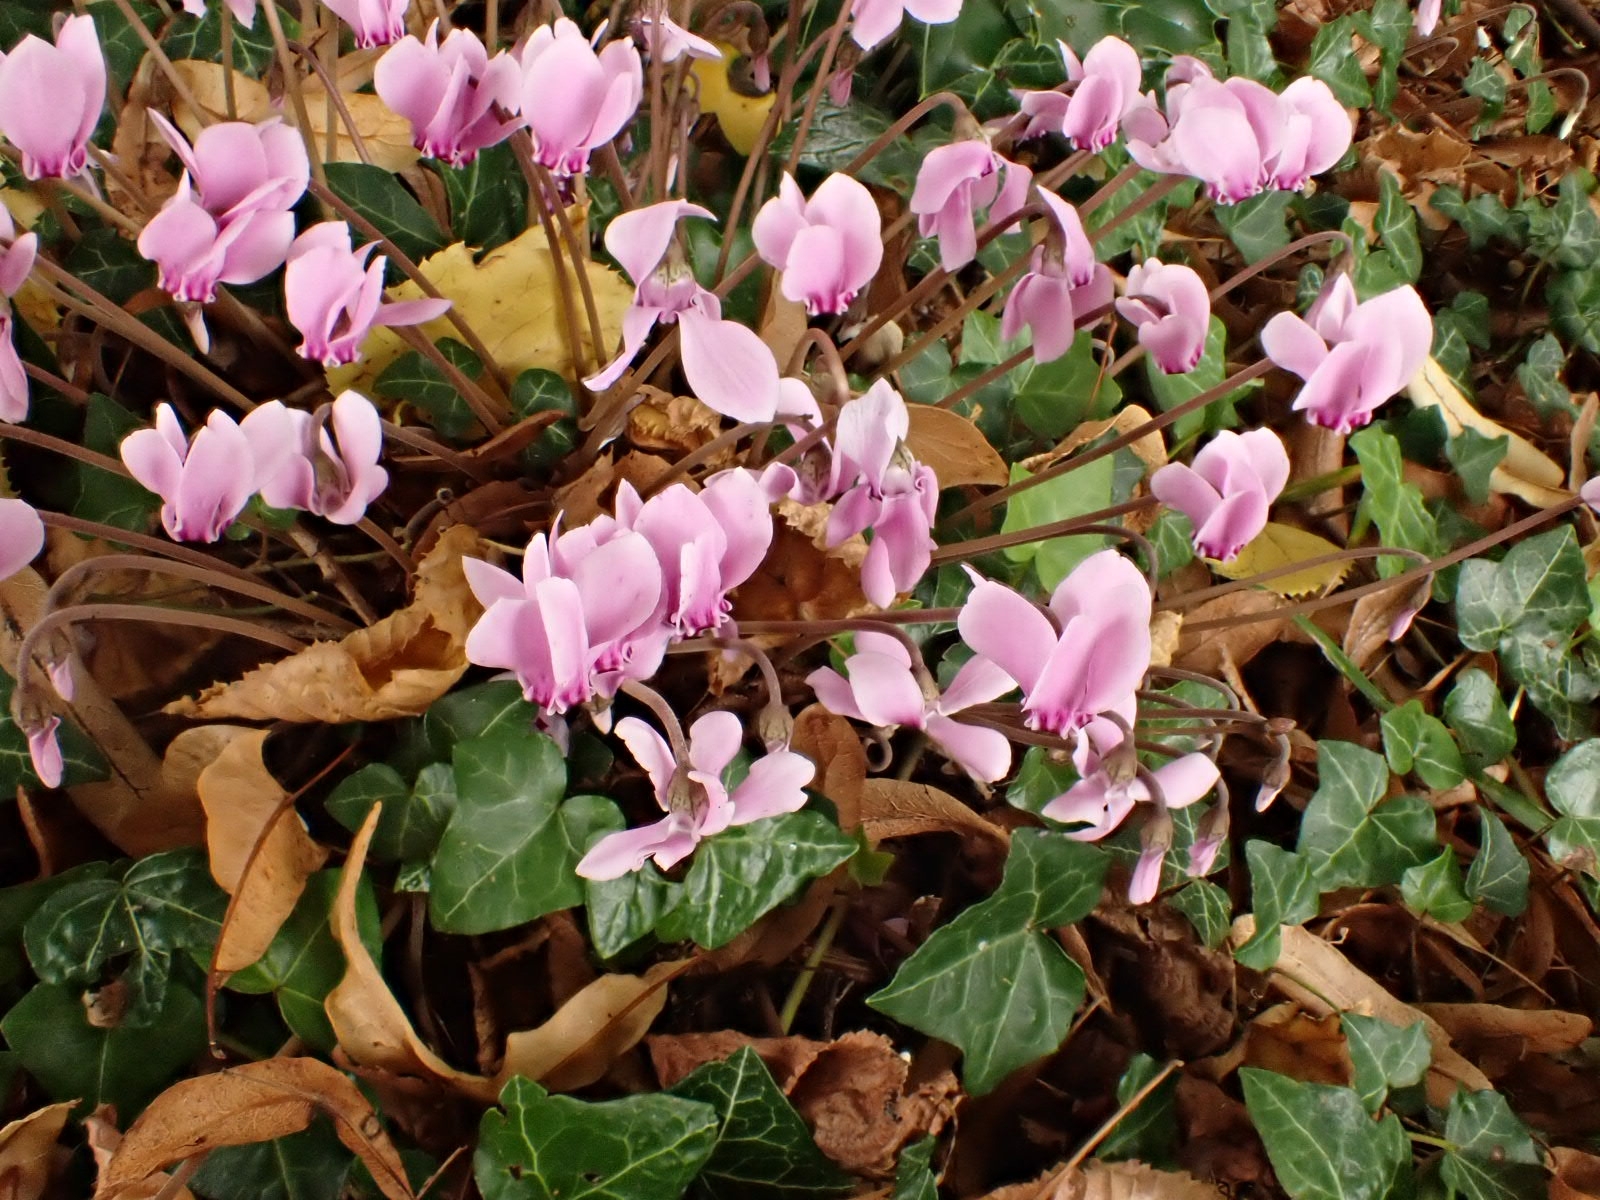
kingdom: Plantae
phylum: Tracheophyta
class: Magnoliopsida
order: Ericales
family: Primulaceae
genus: Cyclamen
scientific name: Cyclamen hederifolium
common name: Sowbread
